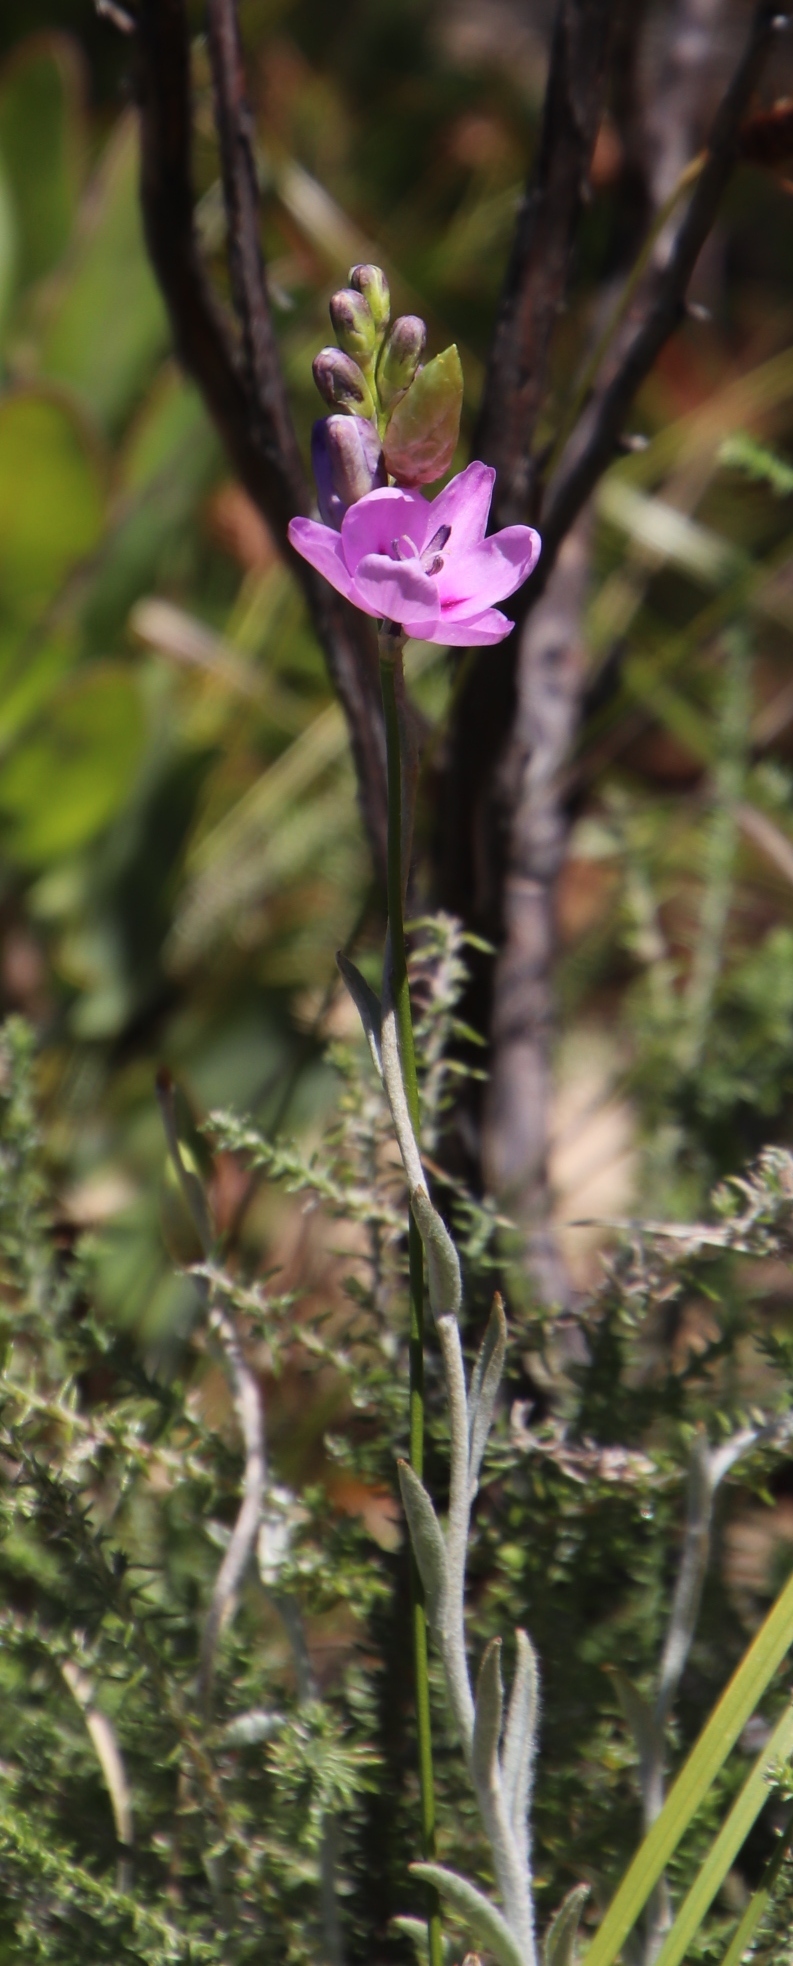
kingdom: Plantae
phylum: Tracheophyta
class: Liliopsida
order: Asparagales
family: Iridaceae
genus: Ixia
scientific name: Ixia metelerkampiae
